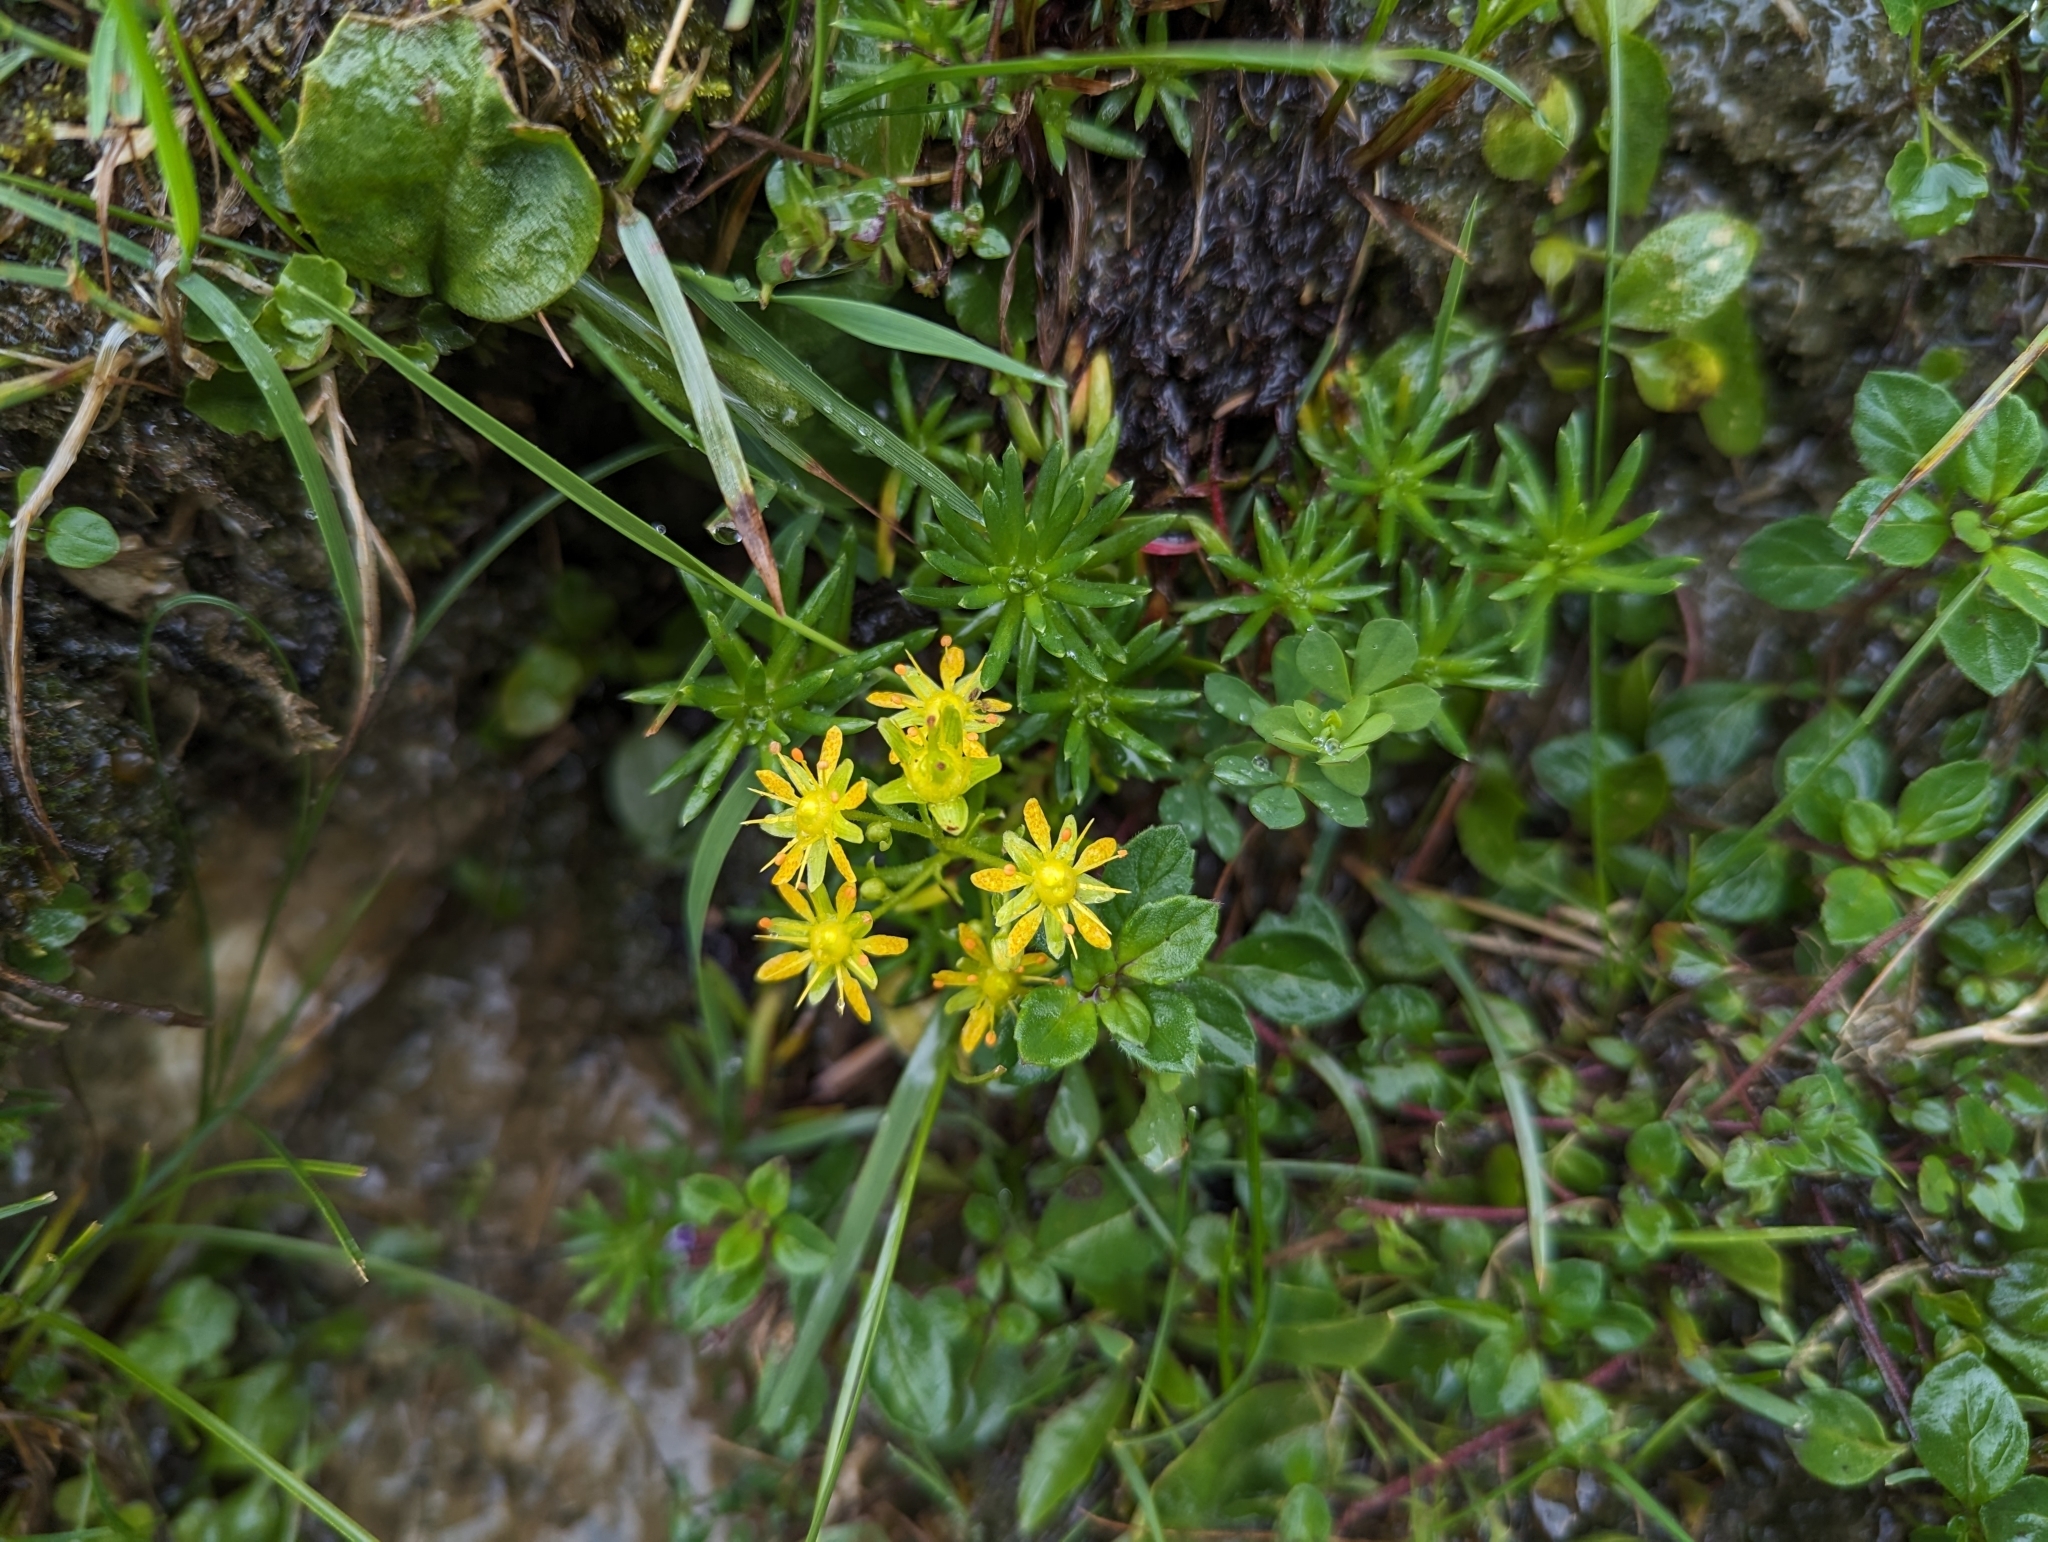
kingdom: Plantae
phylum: Tracheophyta
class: Magnoliopsida
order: Saxifragales
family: Saxifragaceae
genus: Saxifraga
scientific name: Saxifraga aizoides
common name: Yellow mountain saxifrage
